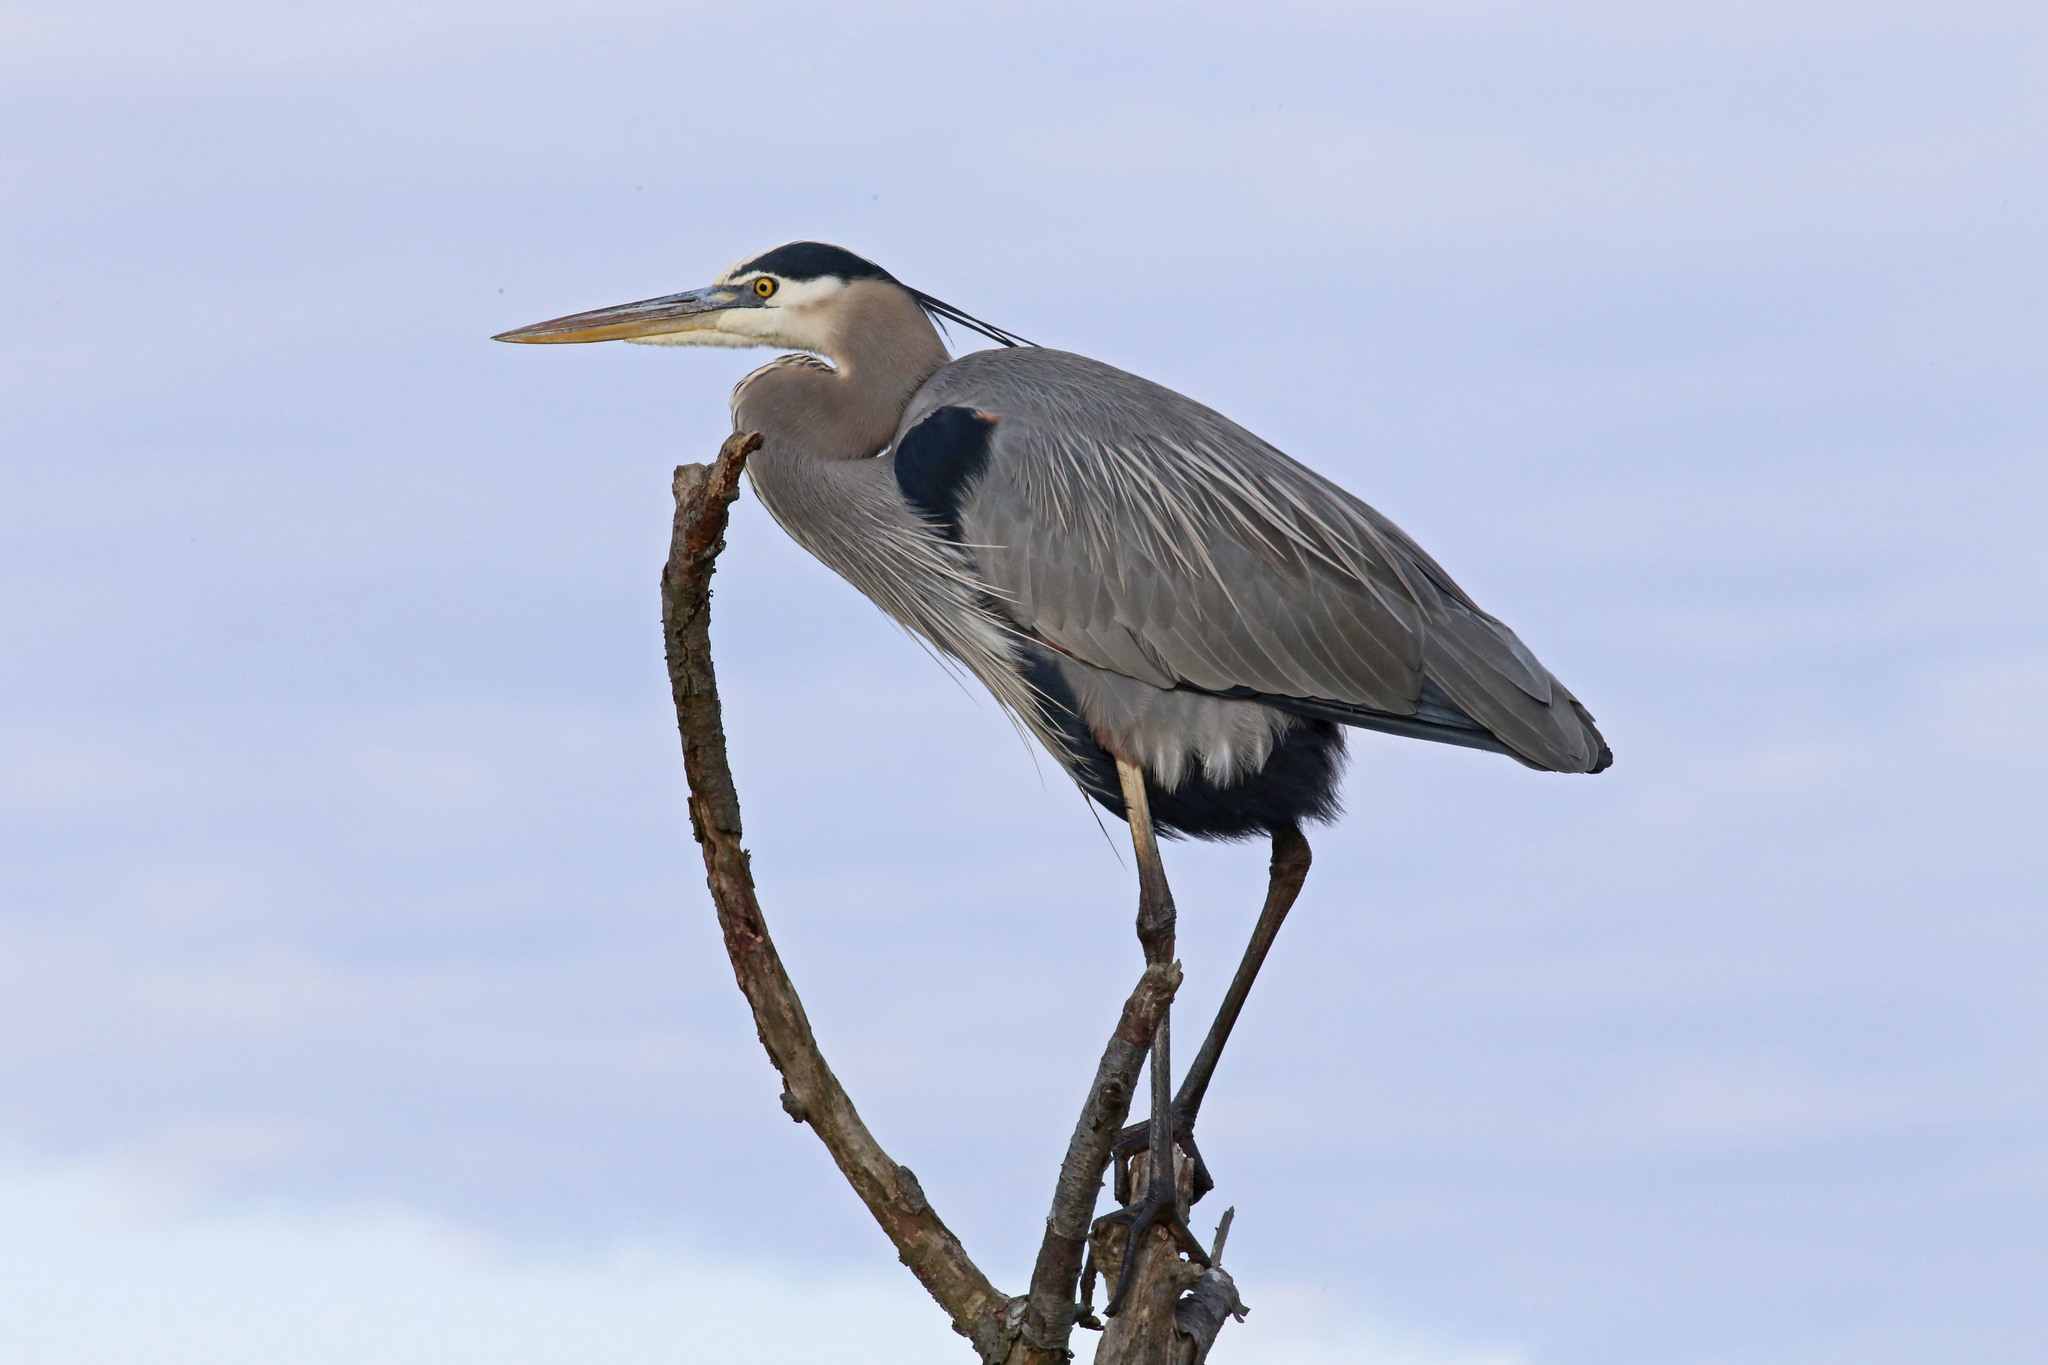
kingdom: Animalia
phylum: Chordata
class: Aves
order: Pelecaniformes
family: Ardeidae
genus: Ardea
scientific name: Ardea herodias
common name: Great blue heron
